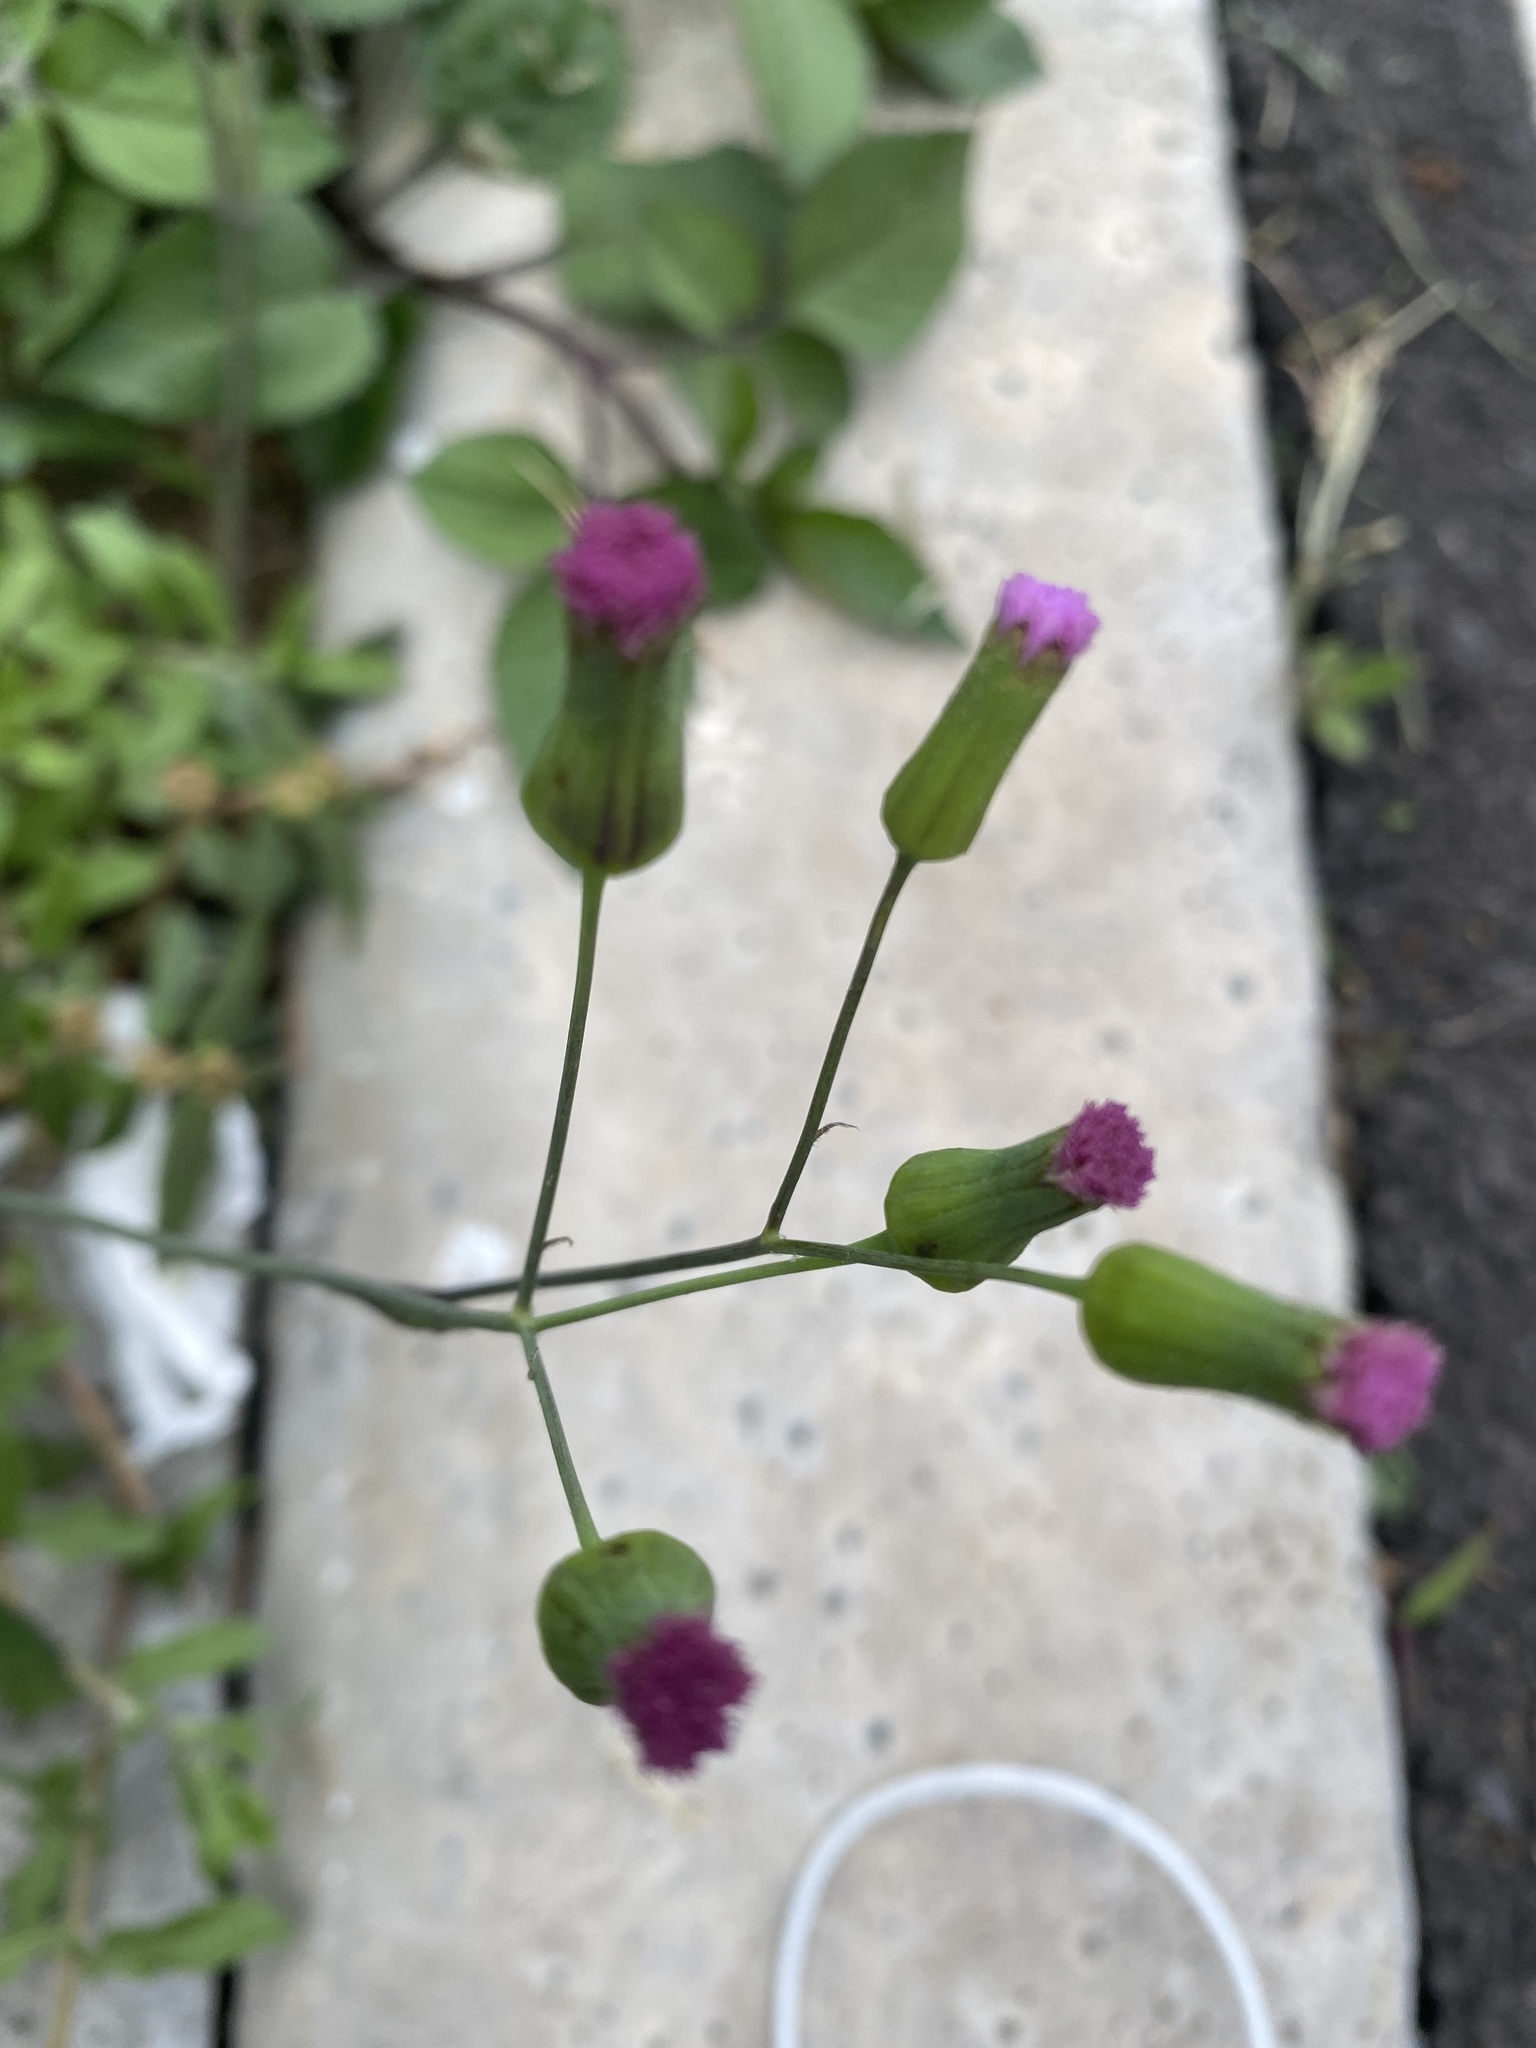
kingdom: Plantae
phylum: Tracheophyta
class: Magnoliopsida
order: Asterales
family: Asteraceae
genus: Emilia
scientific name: Emilia javanica
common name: Tassel-flower
